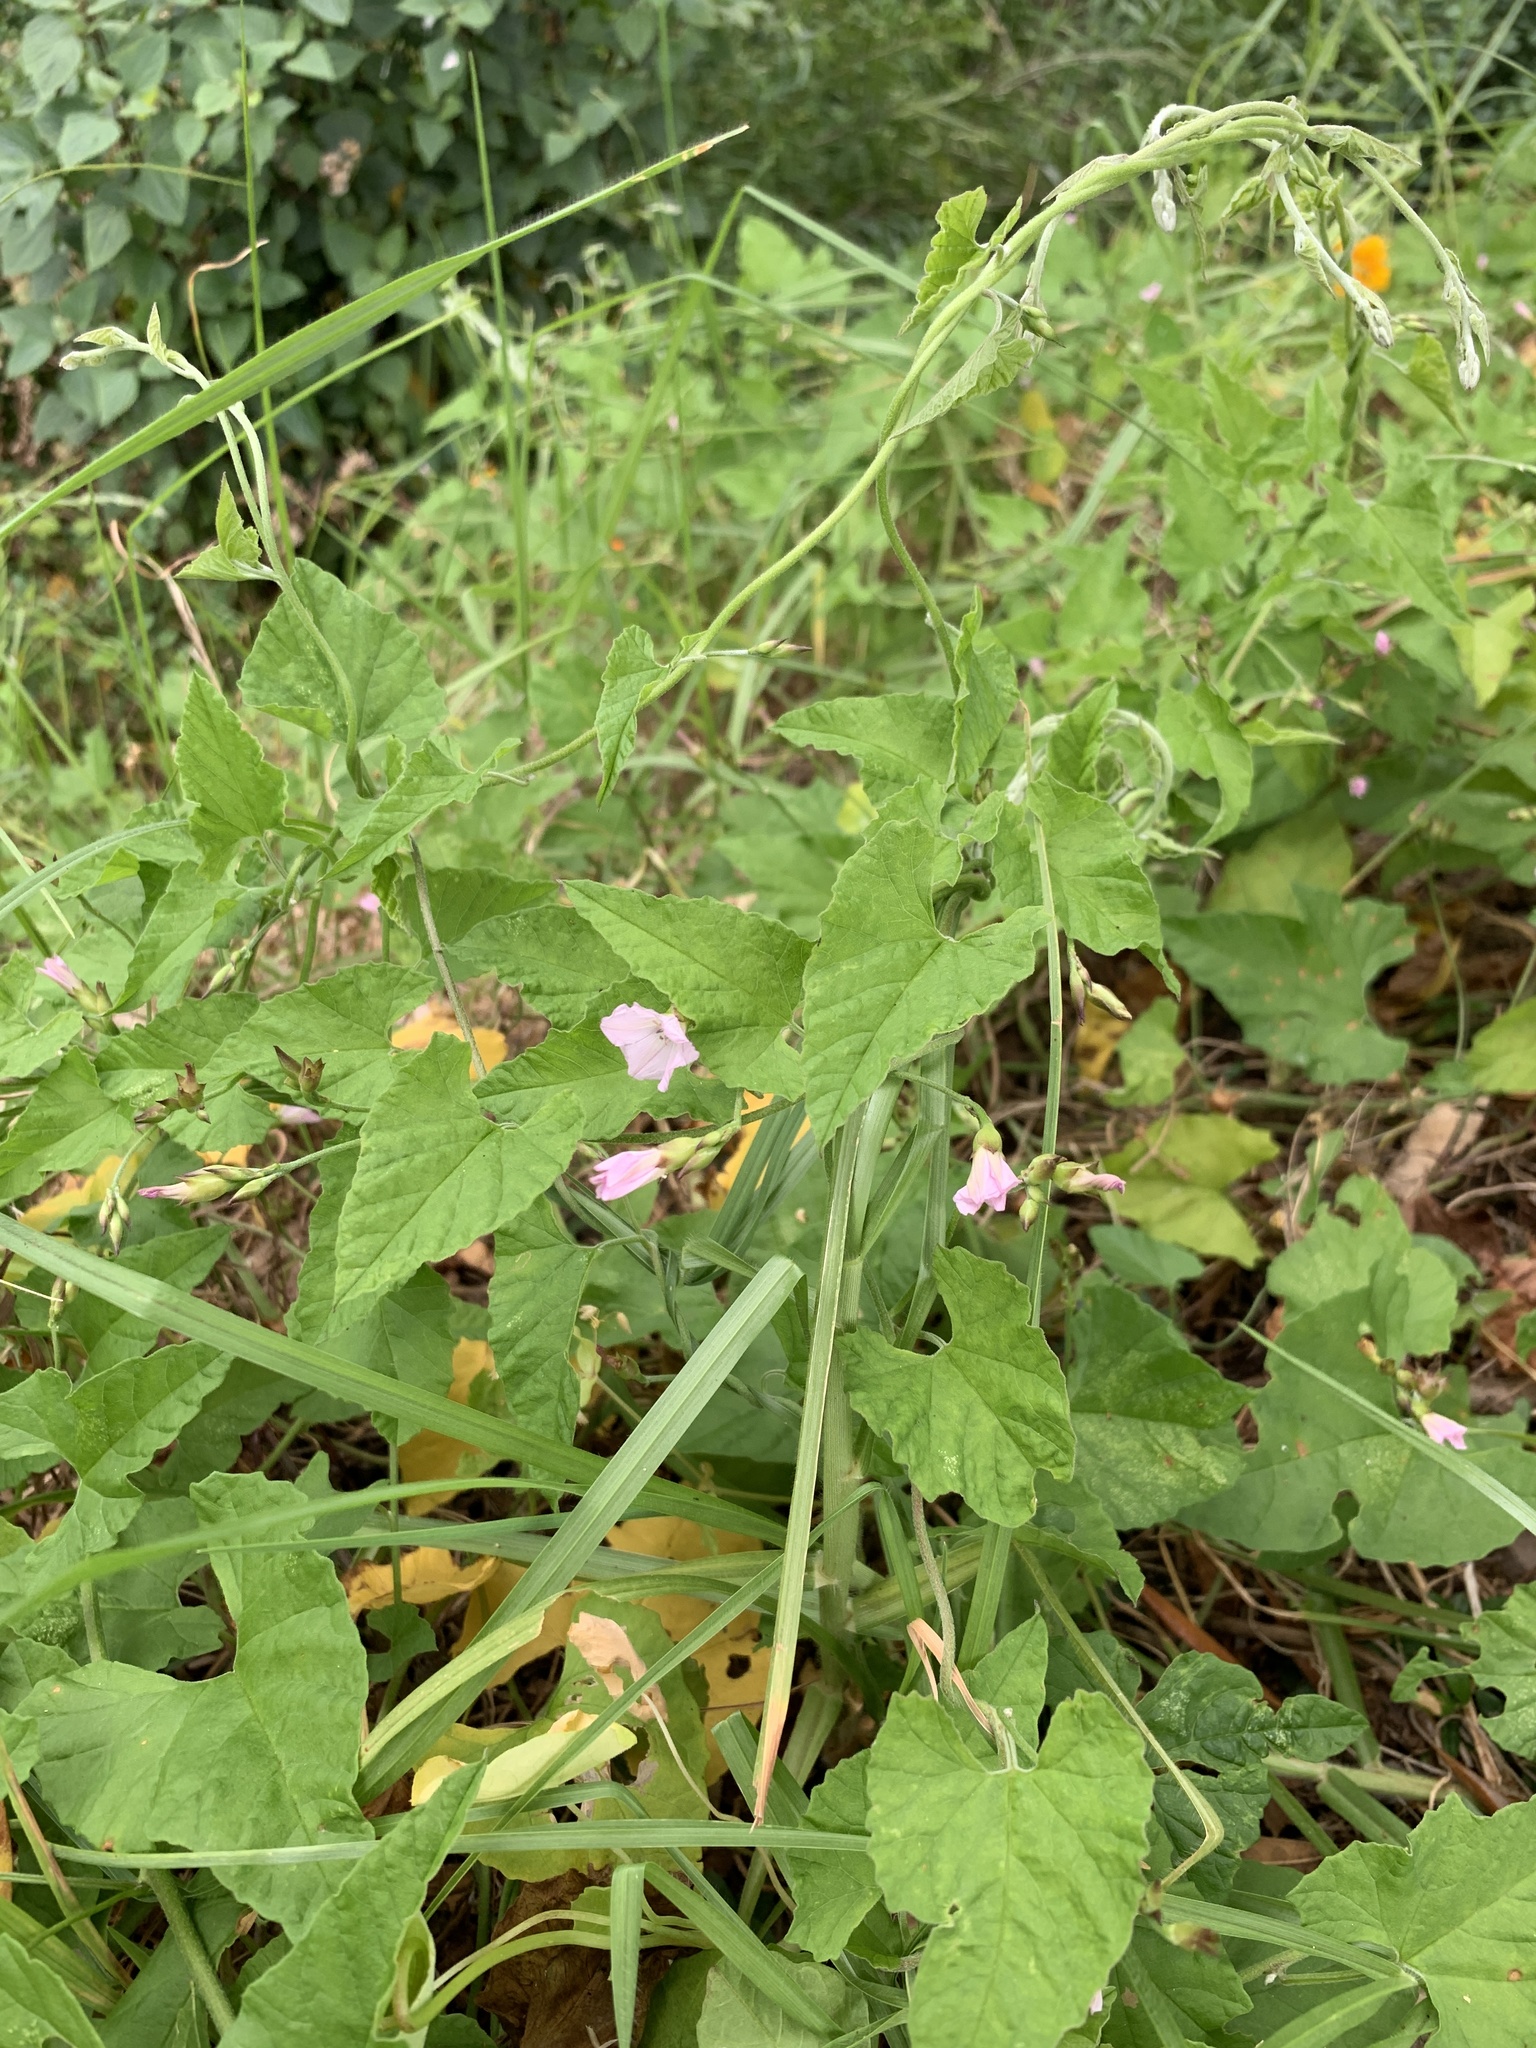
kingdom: Plantae
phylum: Tracheophyta
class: Magnoliopsida
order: Solanales
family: Convolvulaceae
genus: Convolvulus
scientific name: Convolvulus farinosus
